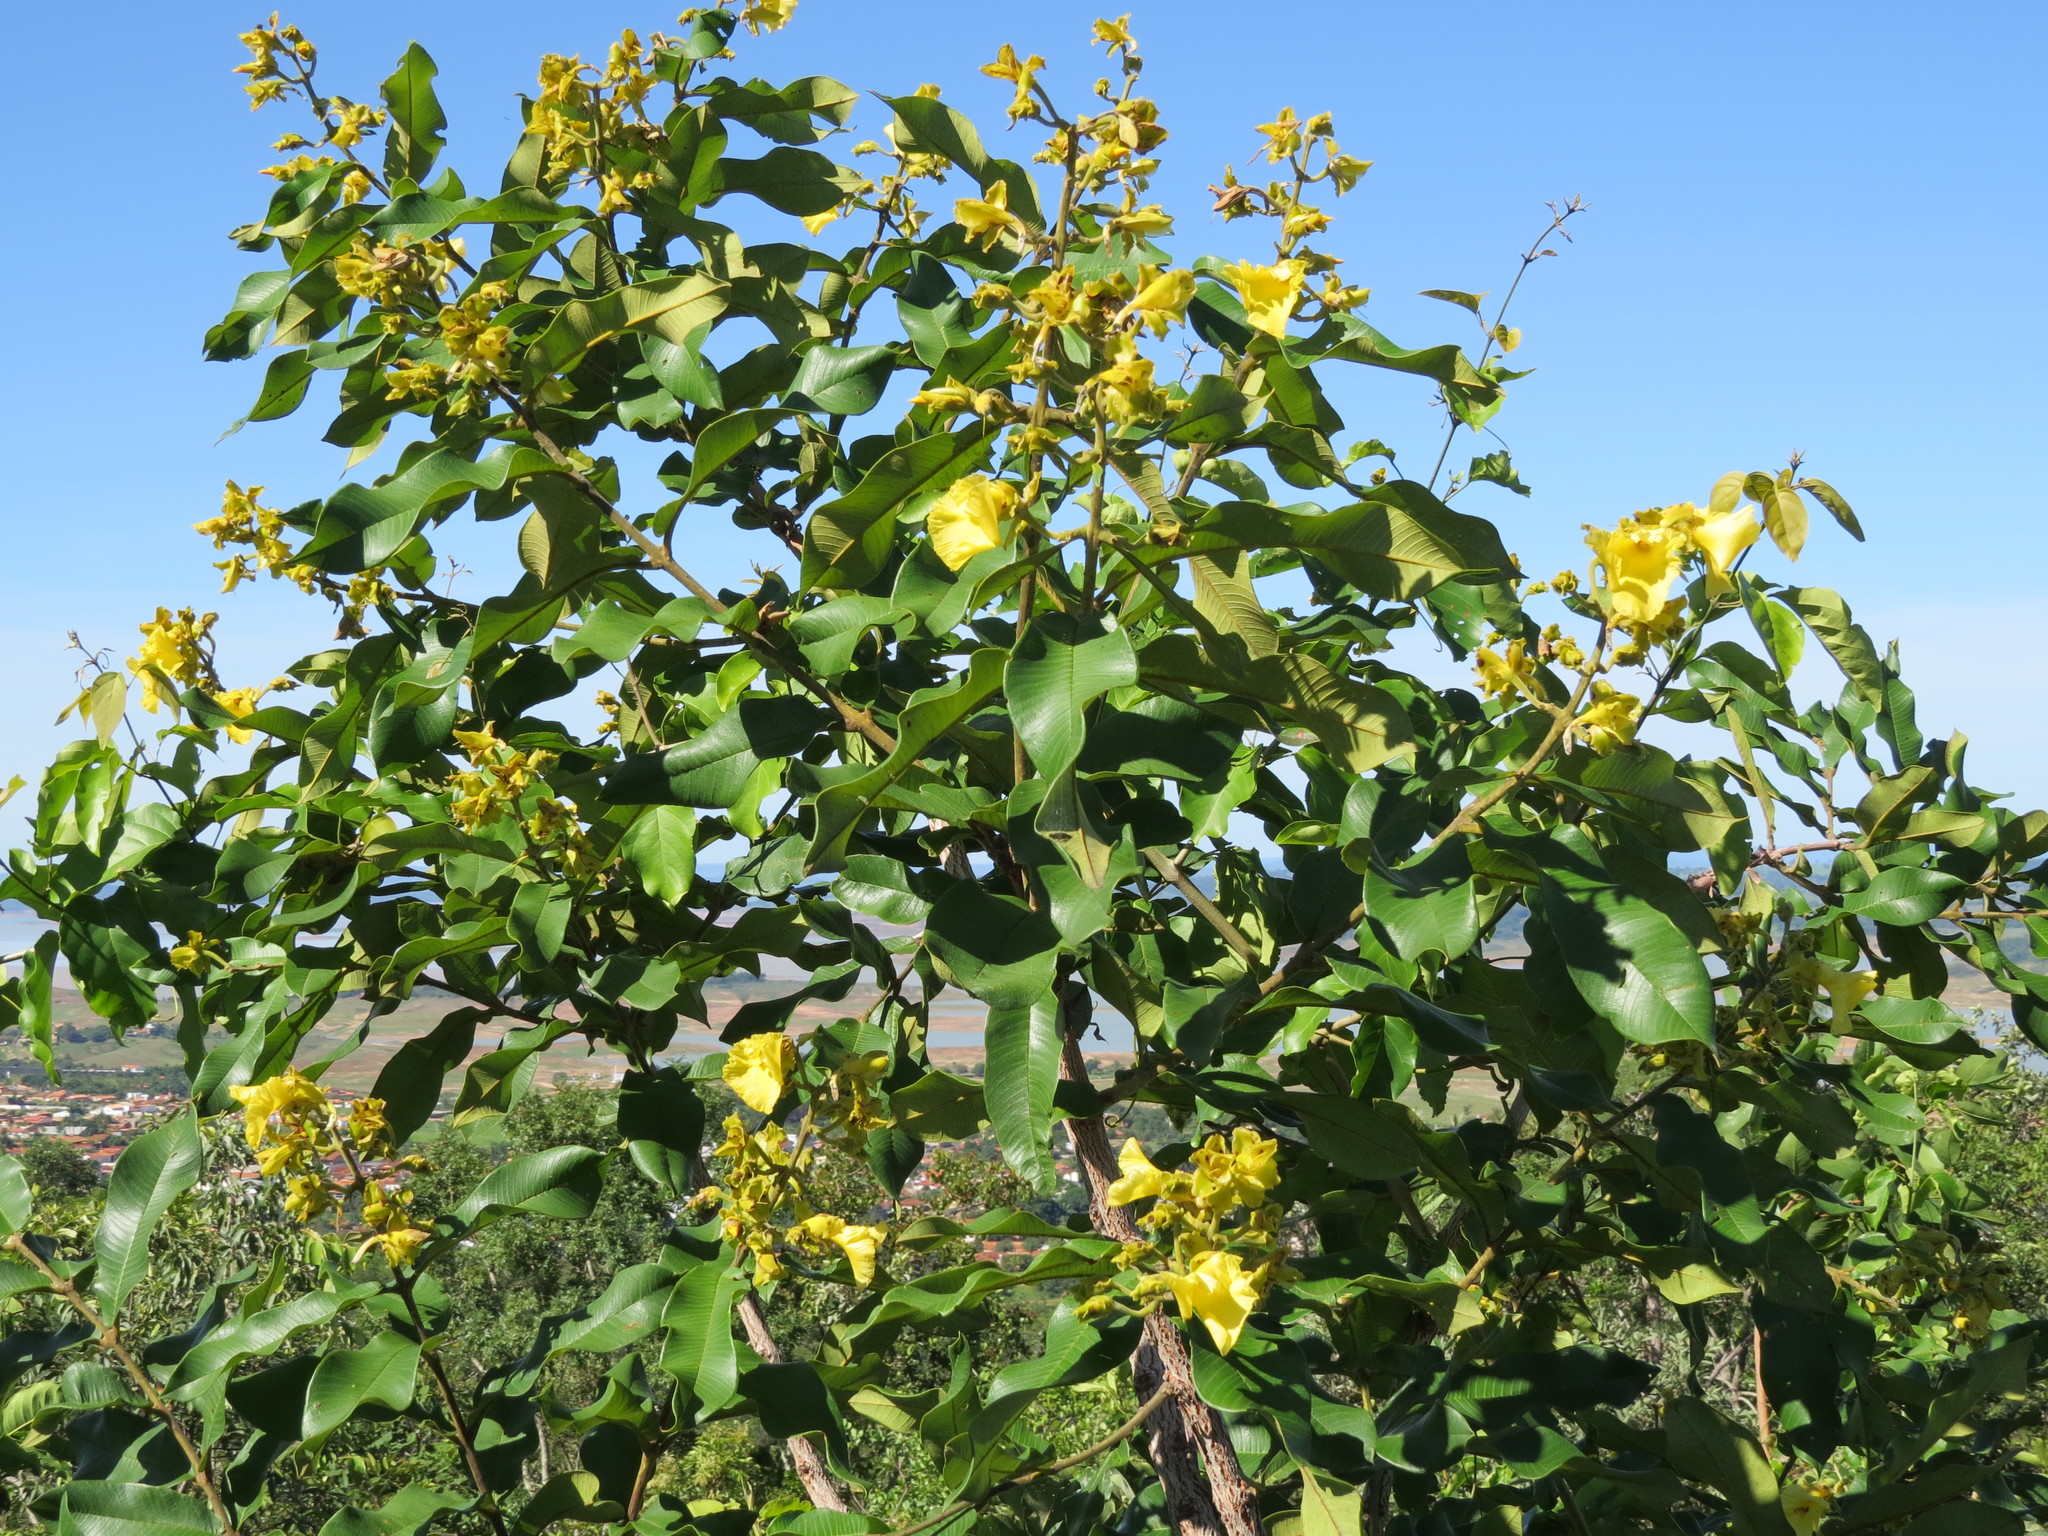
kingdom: Plantae
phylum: Tracheophyta
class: Magnoliopsida
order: Myrtales
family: Vochysiaceae
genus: Qualea
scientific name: Qualea grandiflora
